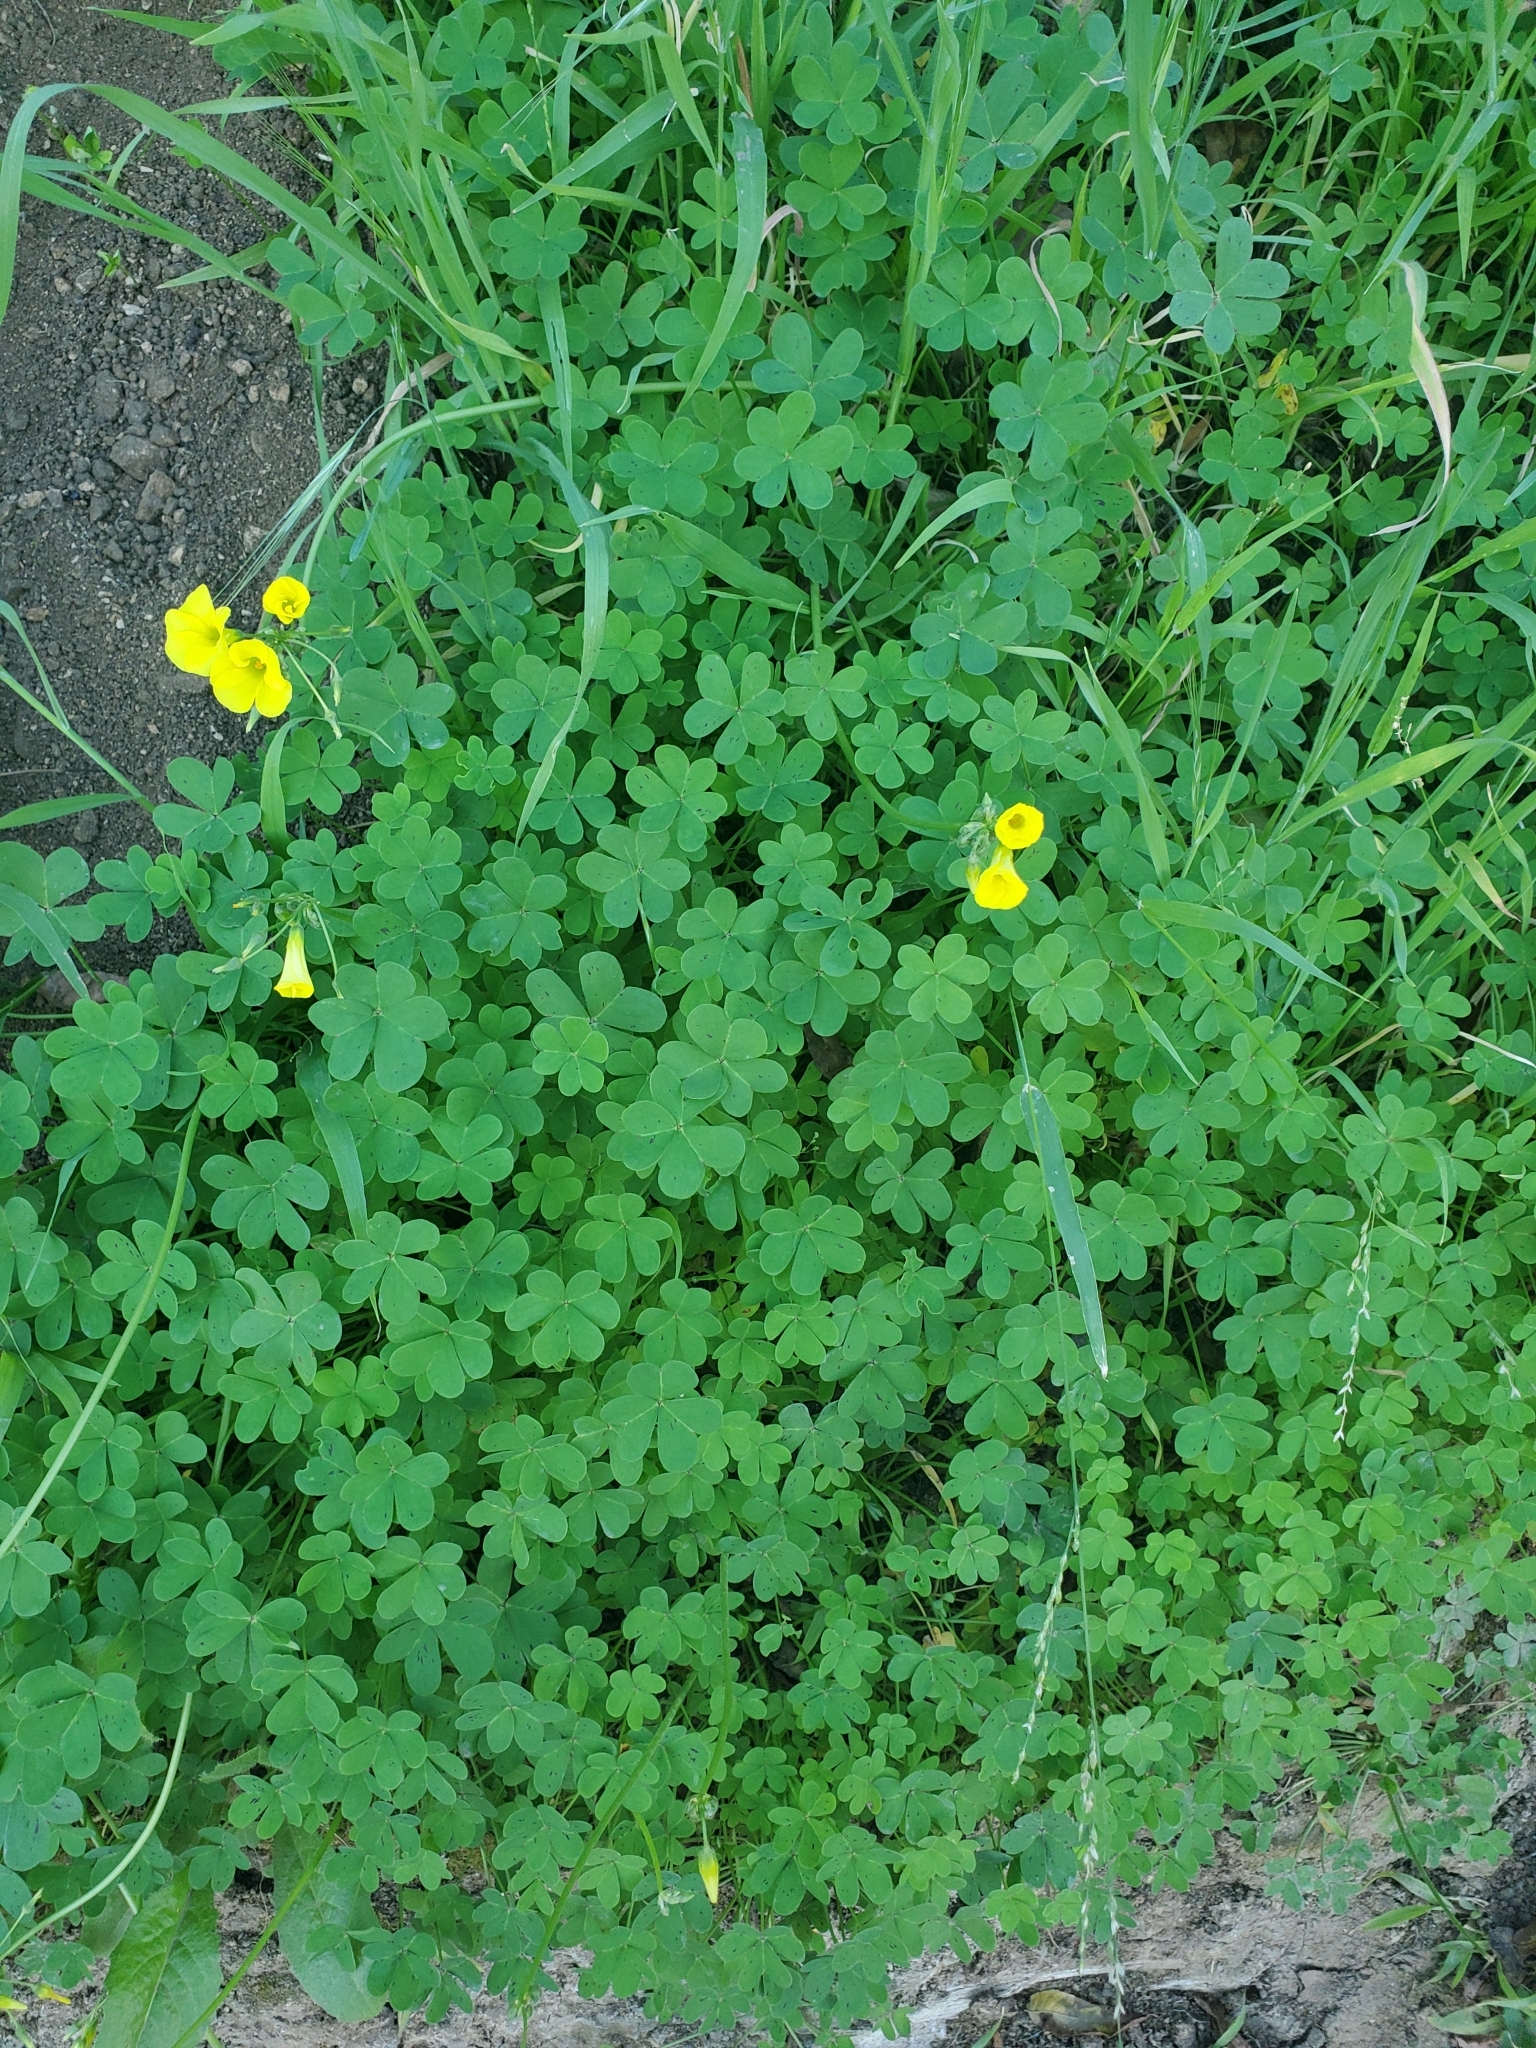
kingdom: Plantae
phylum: Tracheophyta
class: Magnoliopsida
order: Oxalidales
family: Oxalidaceae
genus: Oxalis
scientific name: Oxalis pes-caprae
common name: Bermuda-buttercup
